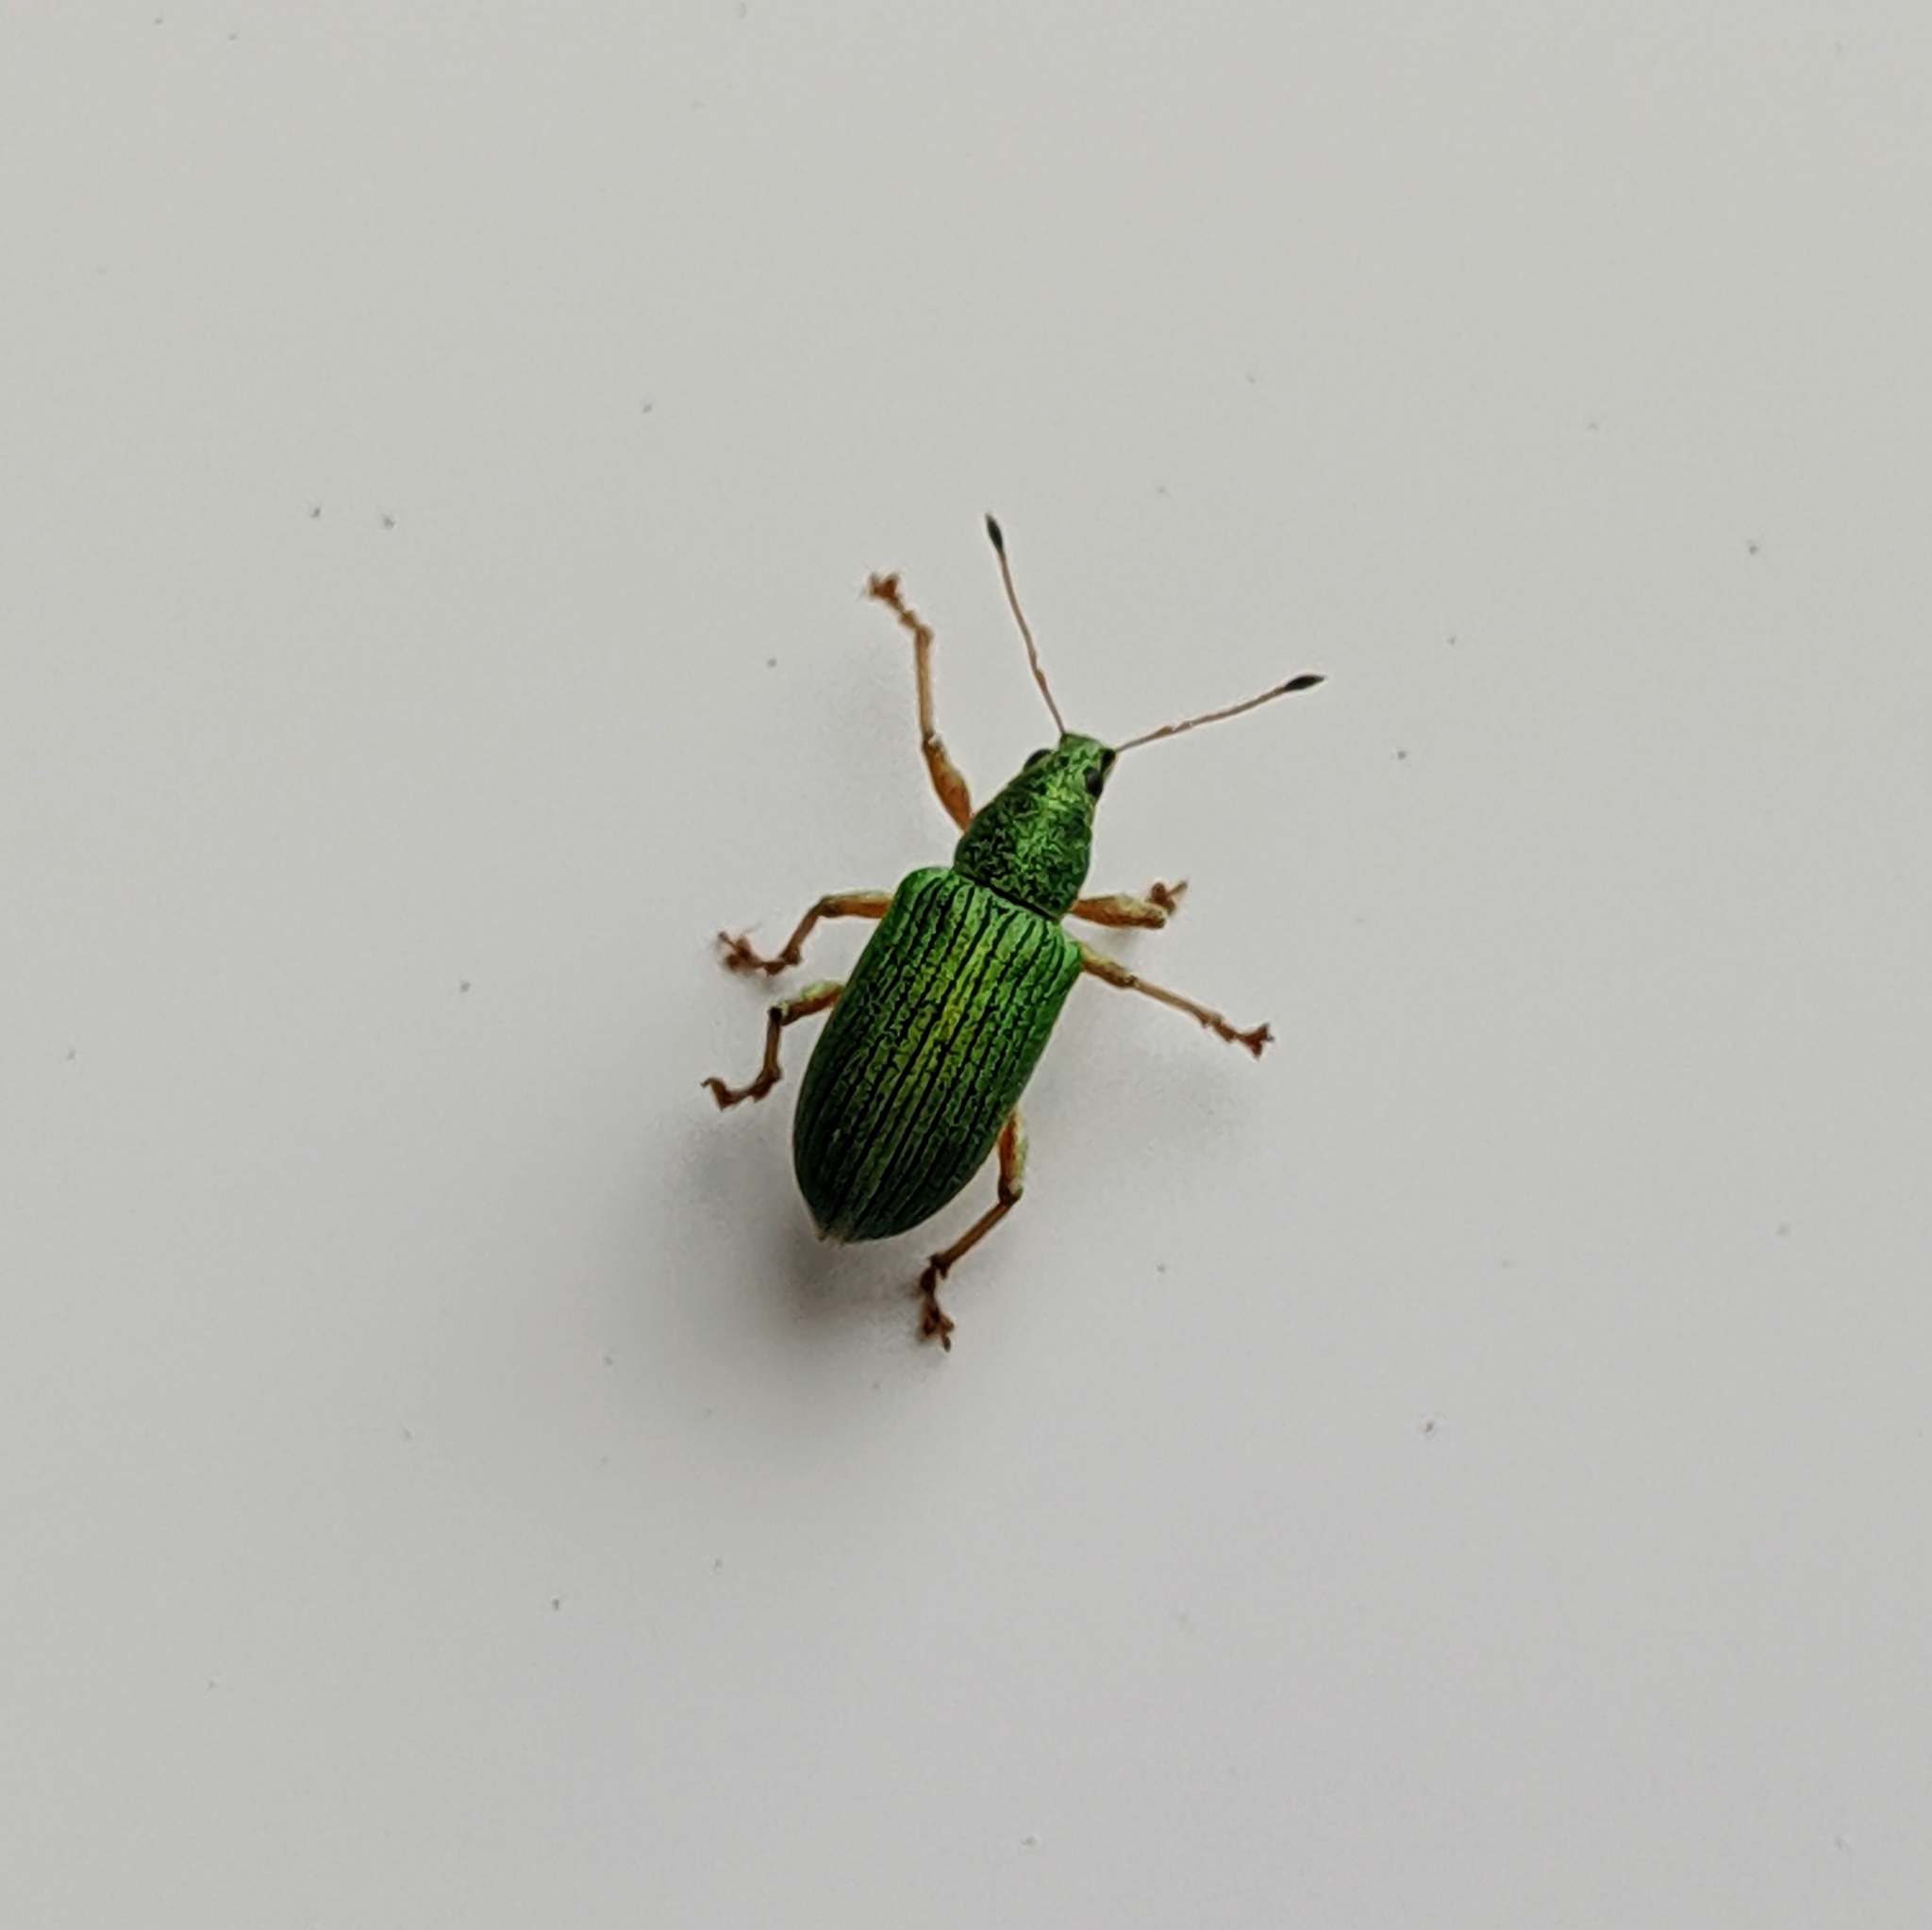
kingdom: Animalia
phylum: Arthropoda
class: Insecta
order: Coleoptera
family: Curculionidae
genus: Polydrusus
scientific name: Polydrusus formosus
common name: Weevil
